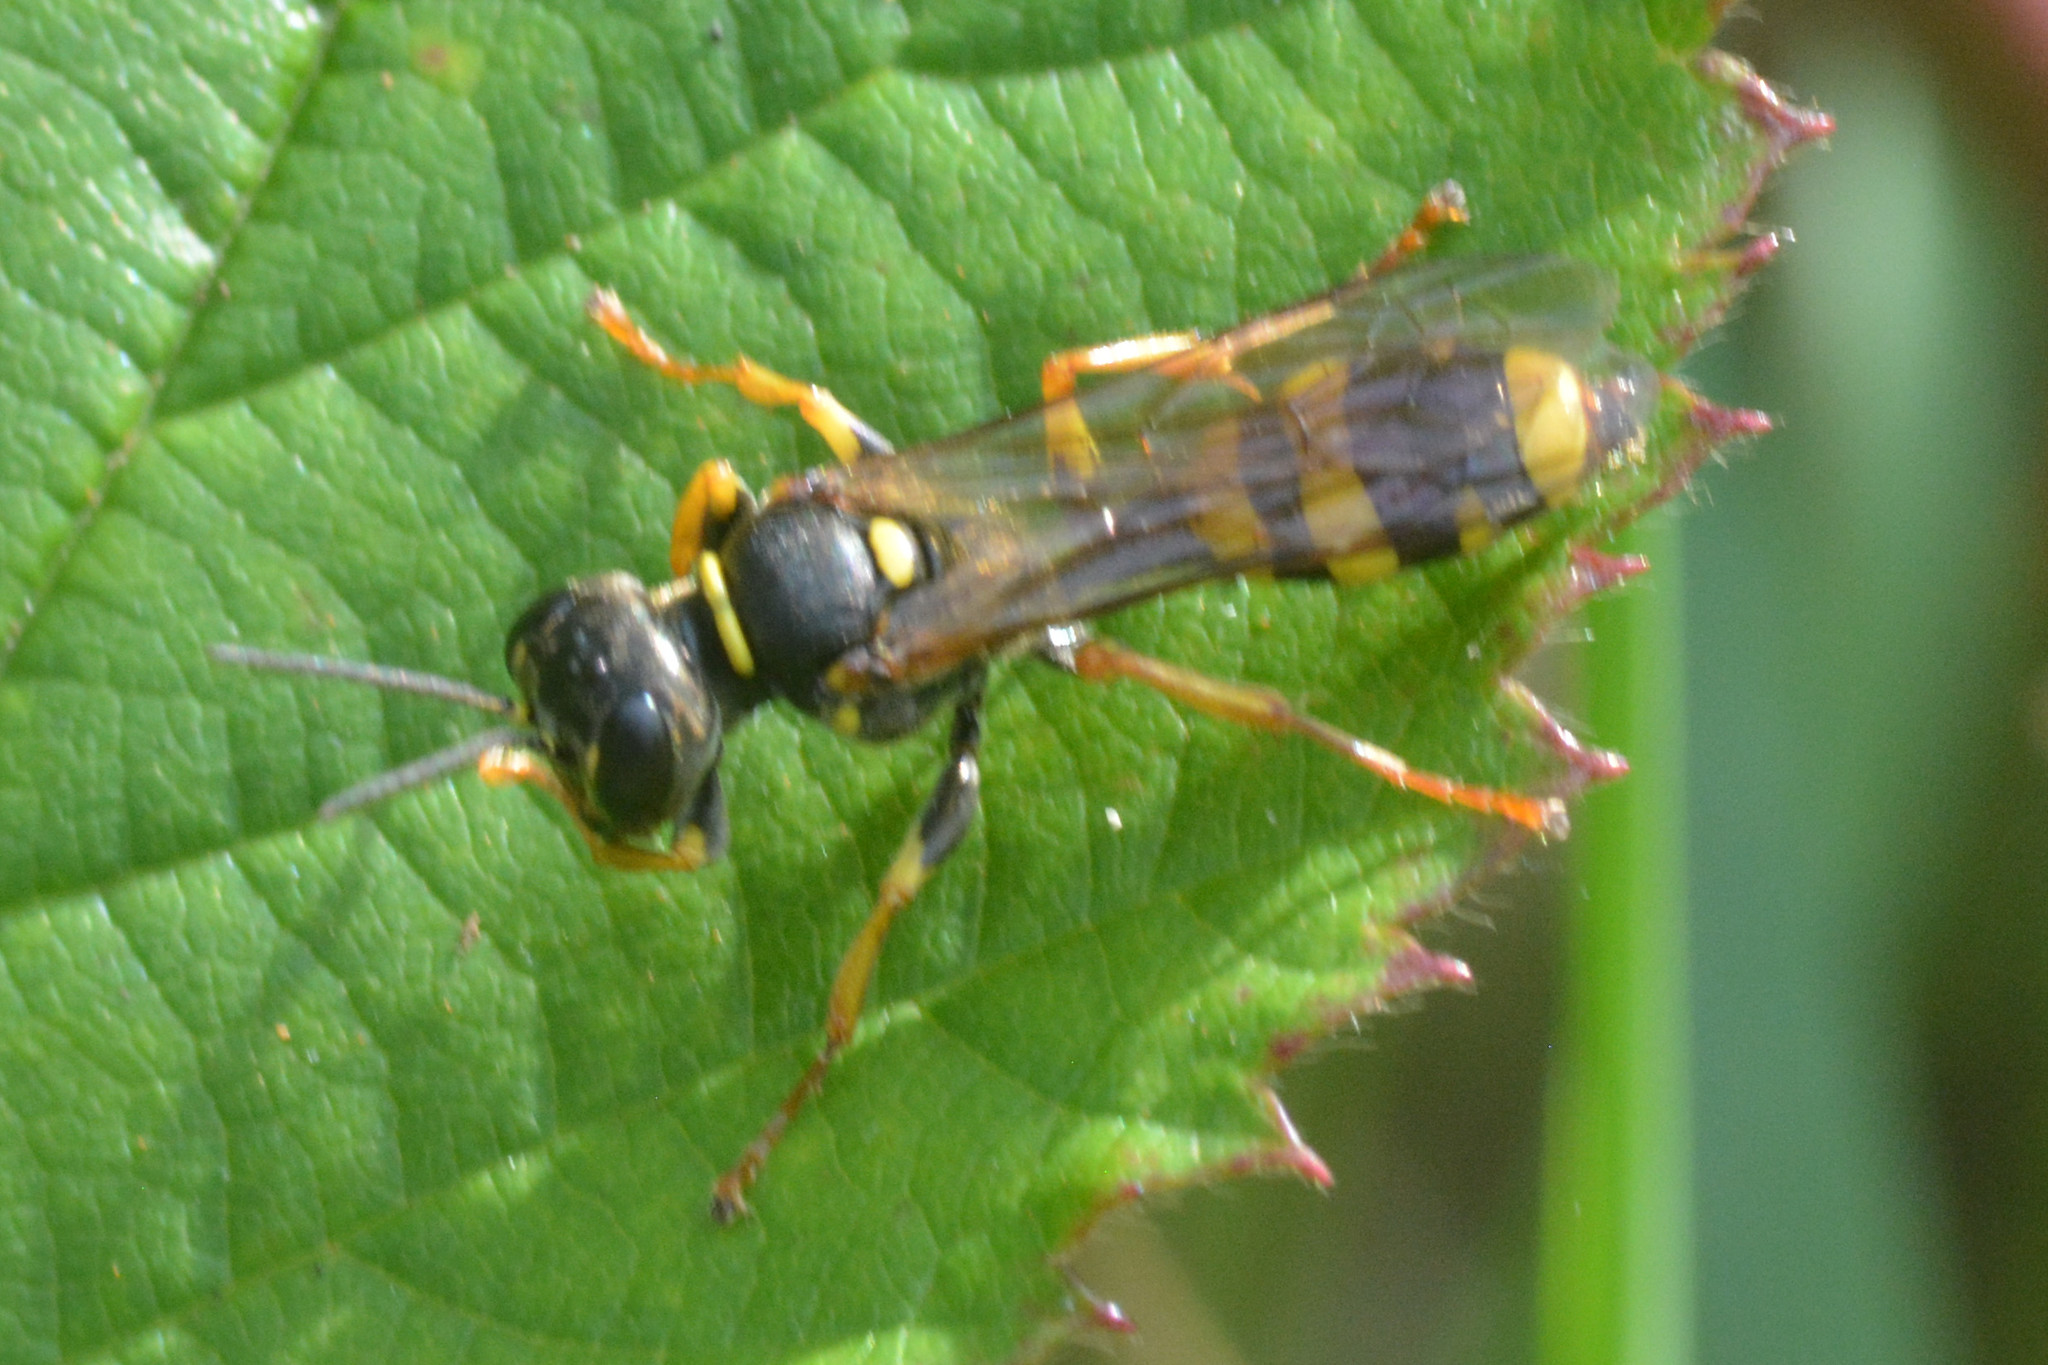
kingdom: Animalia
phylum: Arthropoda
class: Insecta
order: Hymenoptera
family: Crabronidae
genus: Mellinus
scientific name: Mellinus arvensis
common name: Field digger wasp
